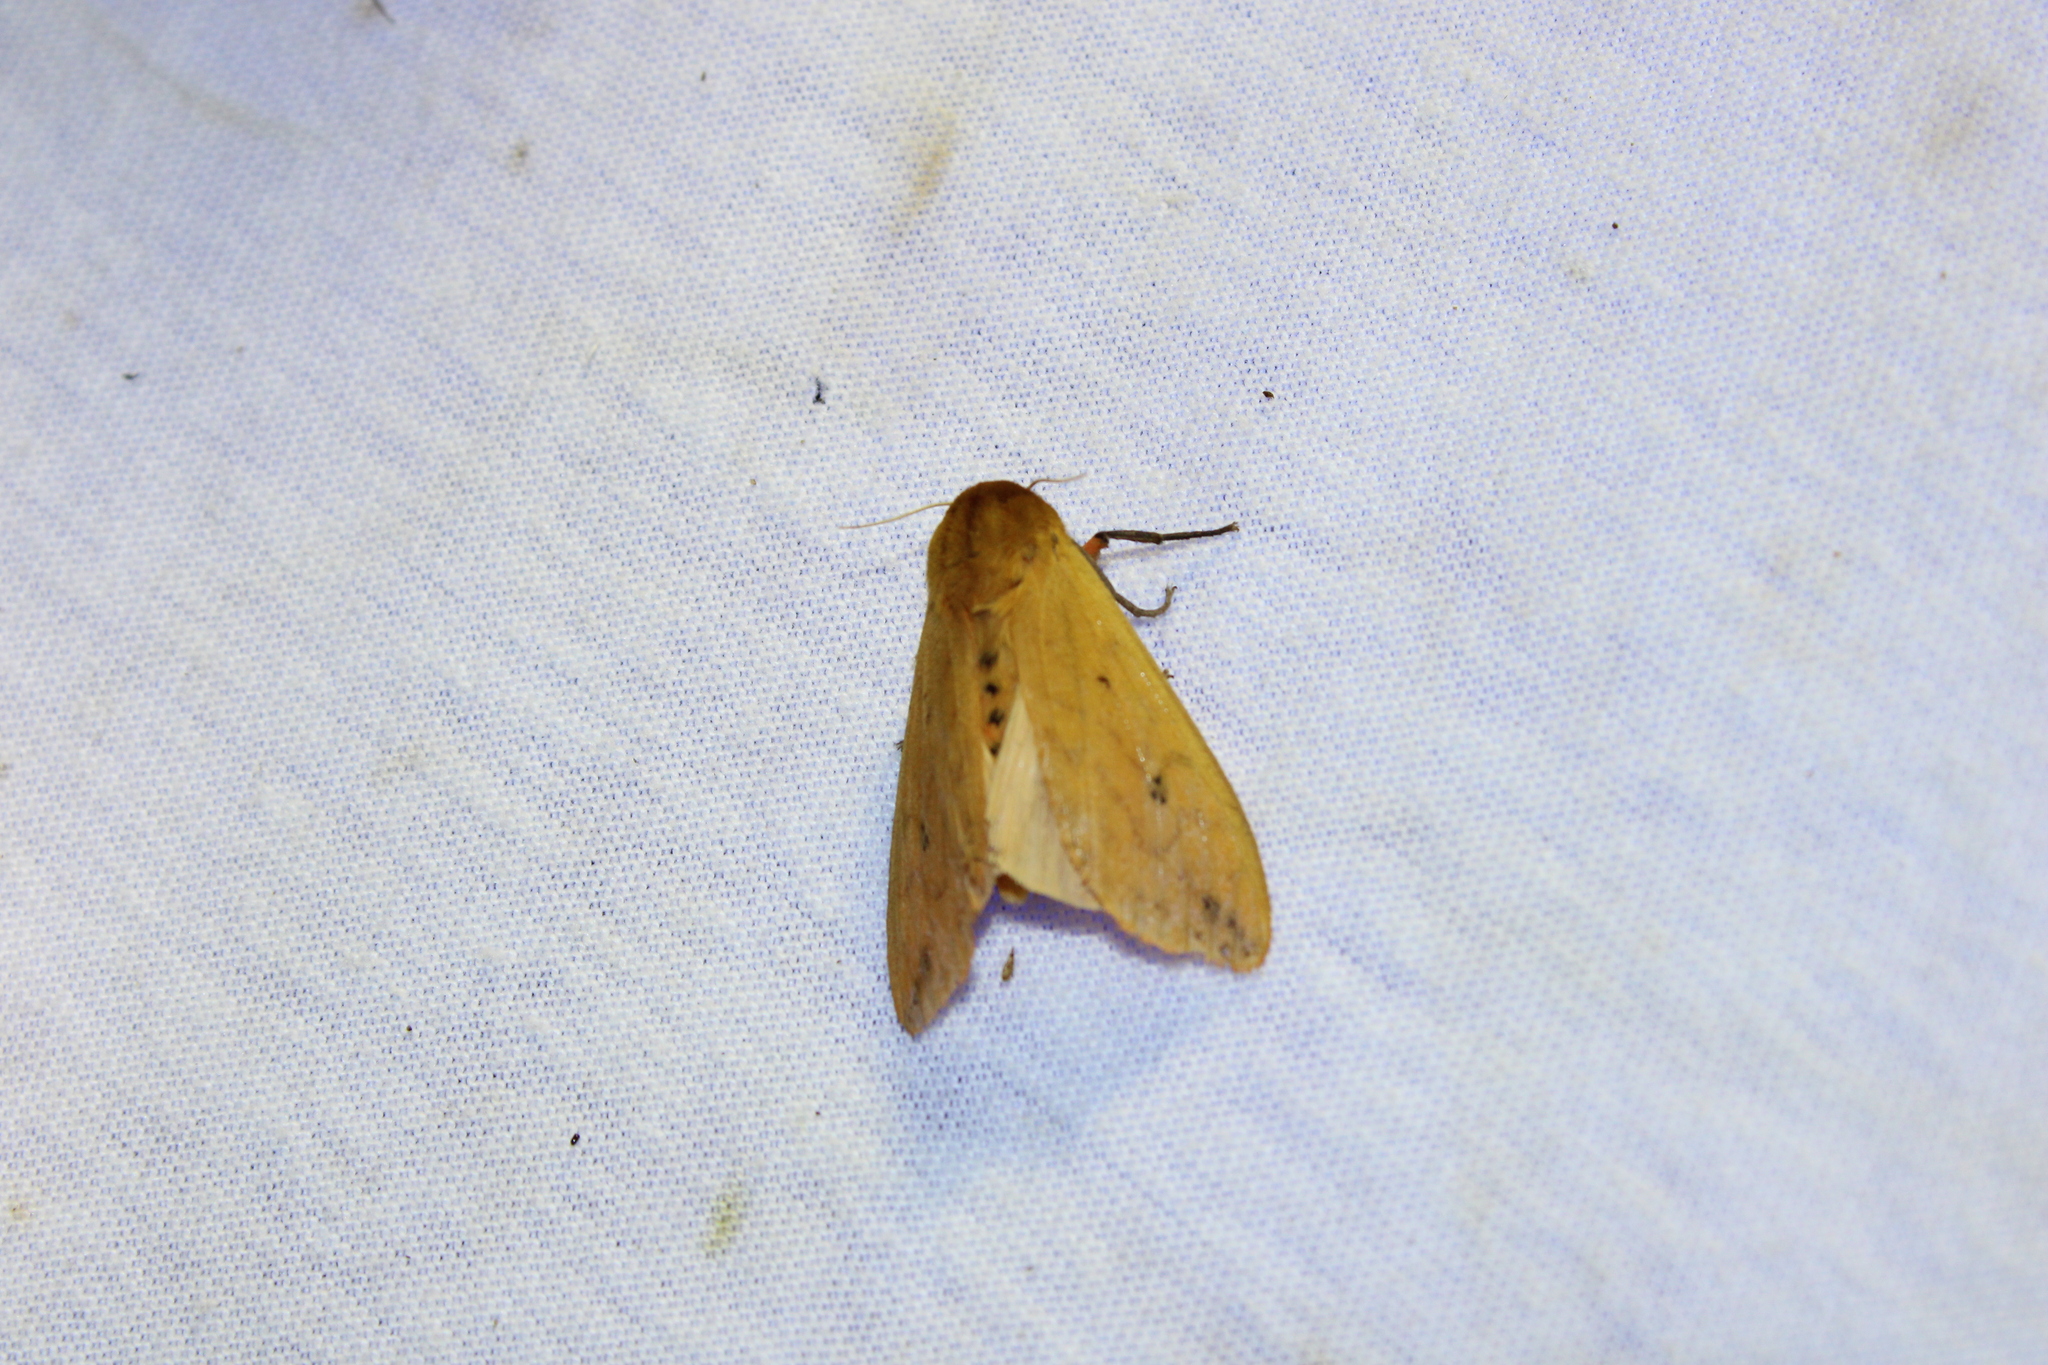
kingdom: Animalia
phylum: Arthropoda
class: Insecta
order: Lepidoptera
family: Erebidae
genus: Pyrrharctia
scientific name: Pyrrharctia isabella
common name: Isabella tiger moth
